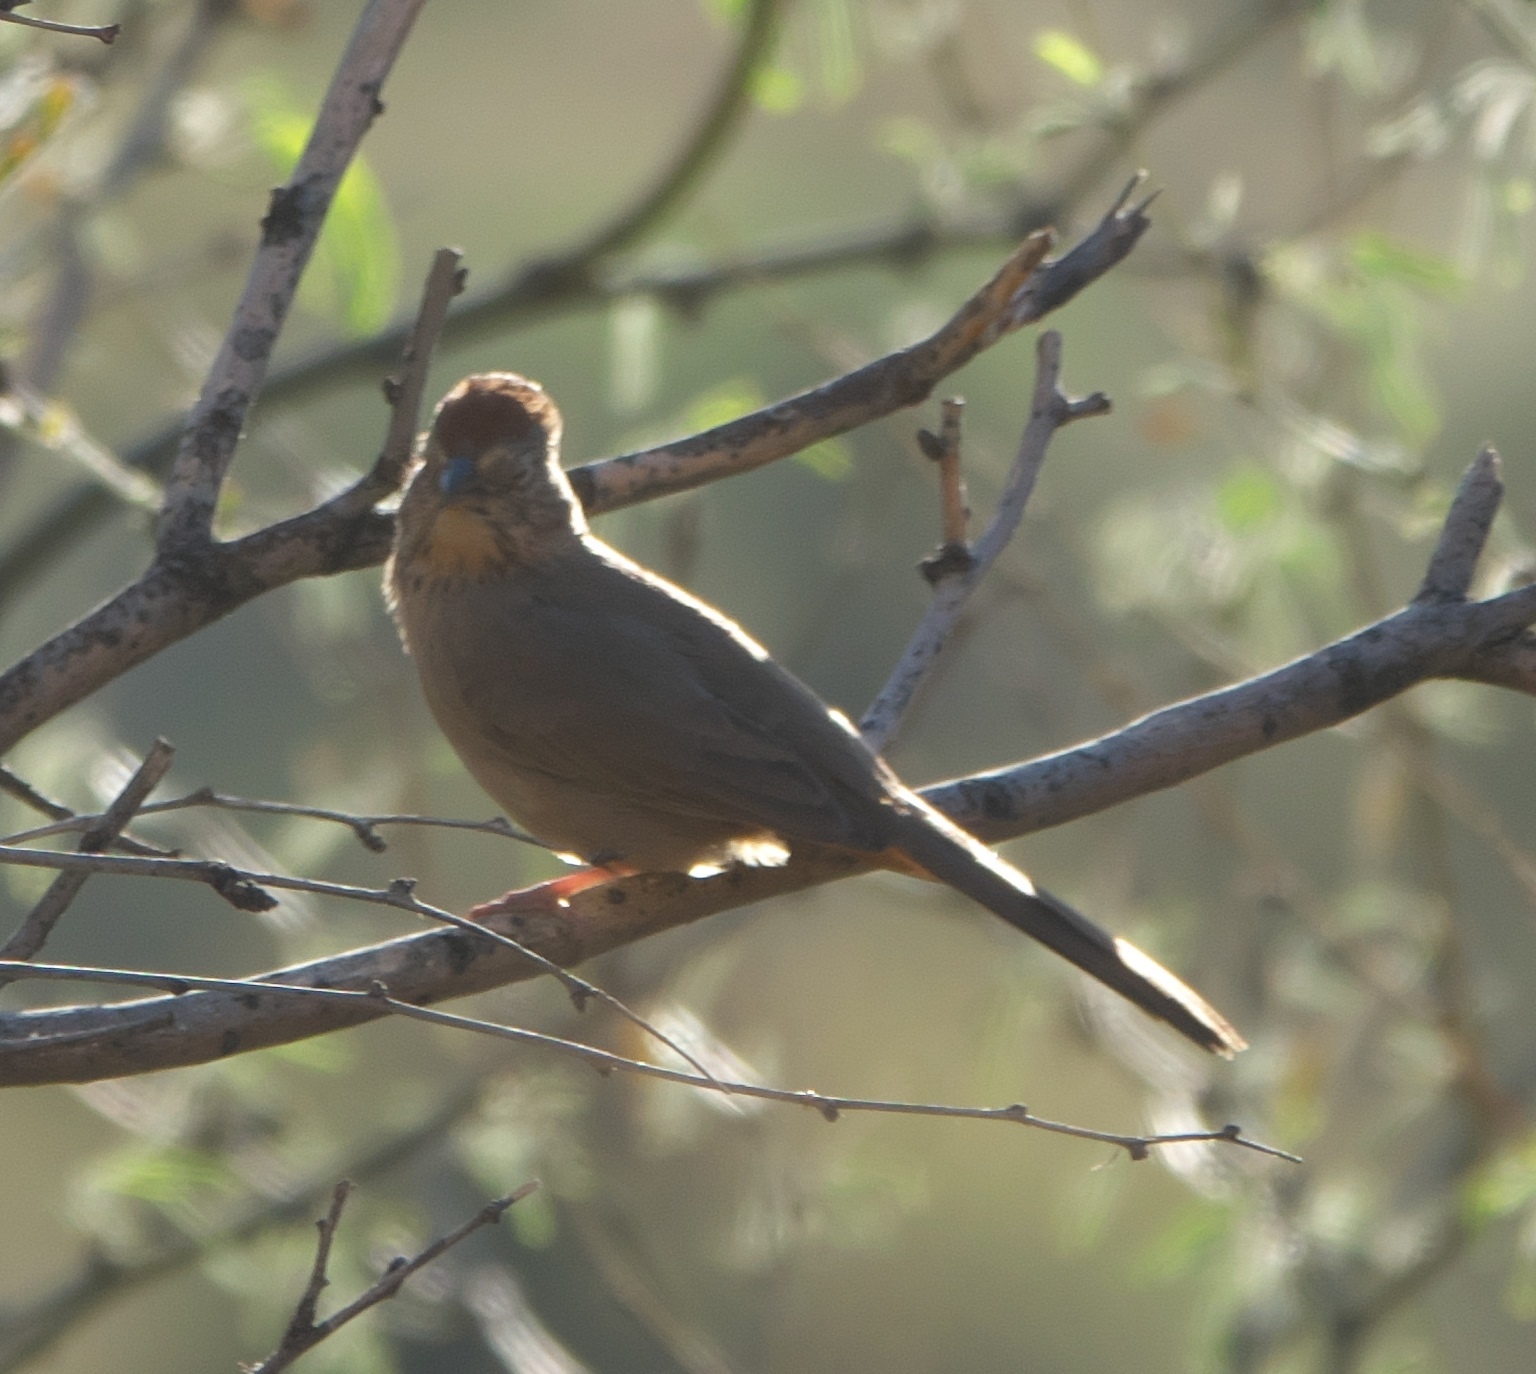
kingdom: Animalia
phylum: Chordata
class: Aves
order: Passeriformes
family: Passerellidae
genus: Melozone
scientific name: Melozone fusca
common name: Canyon towhee
